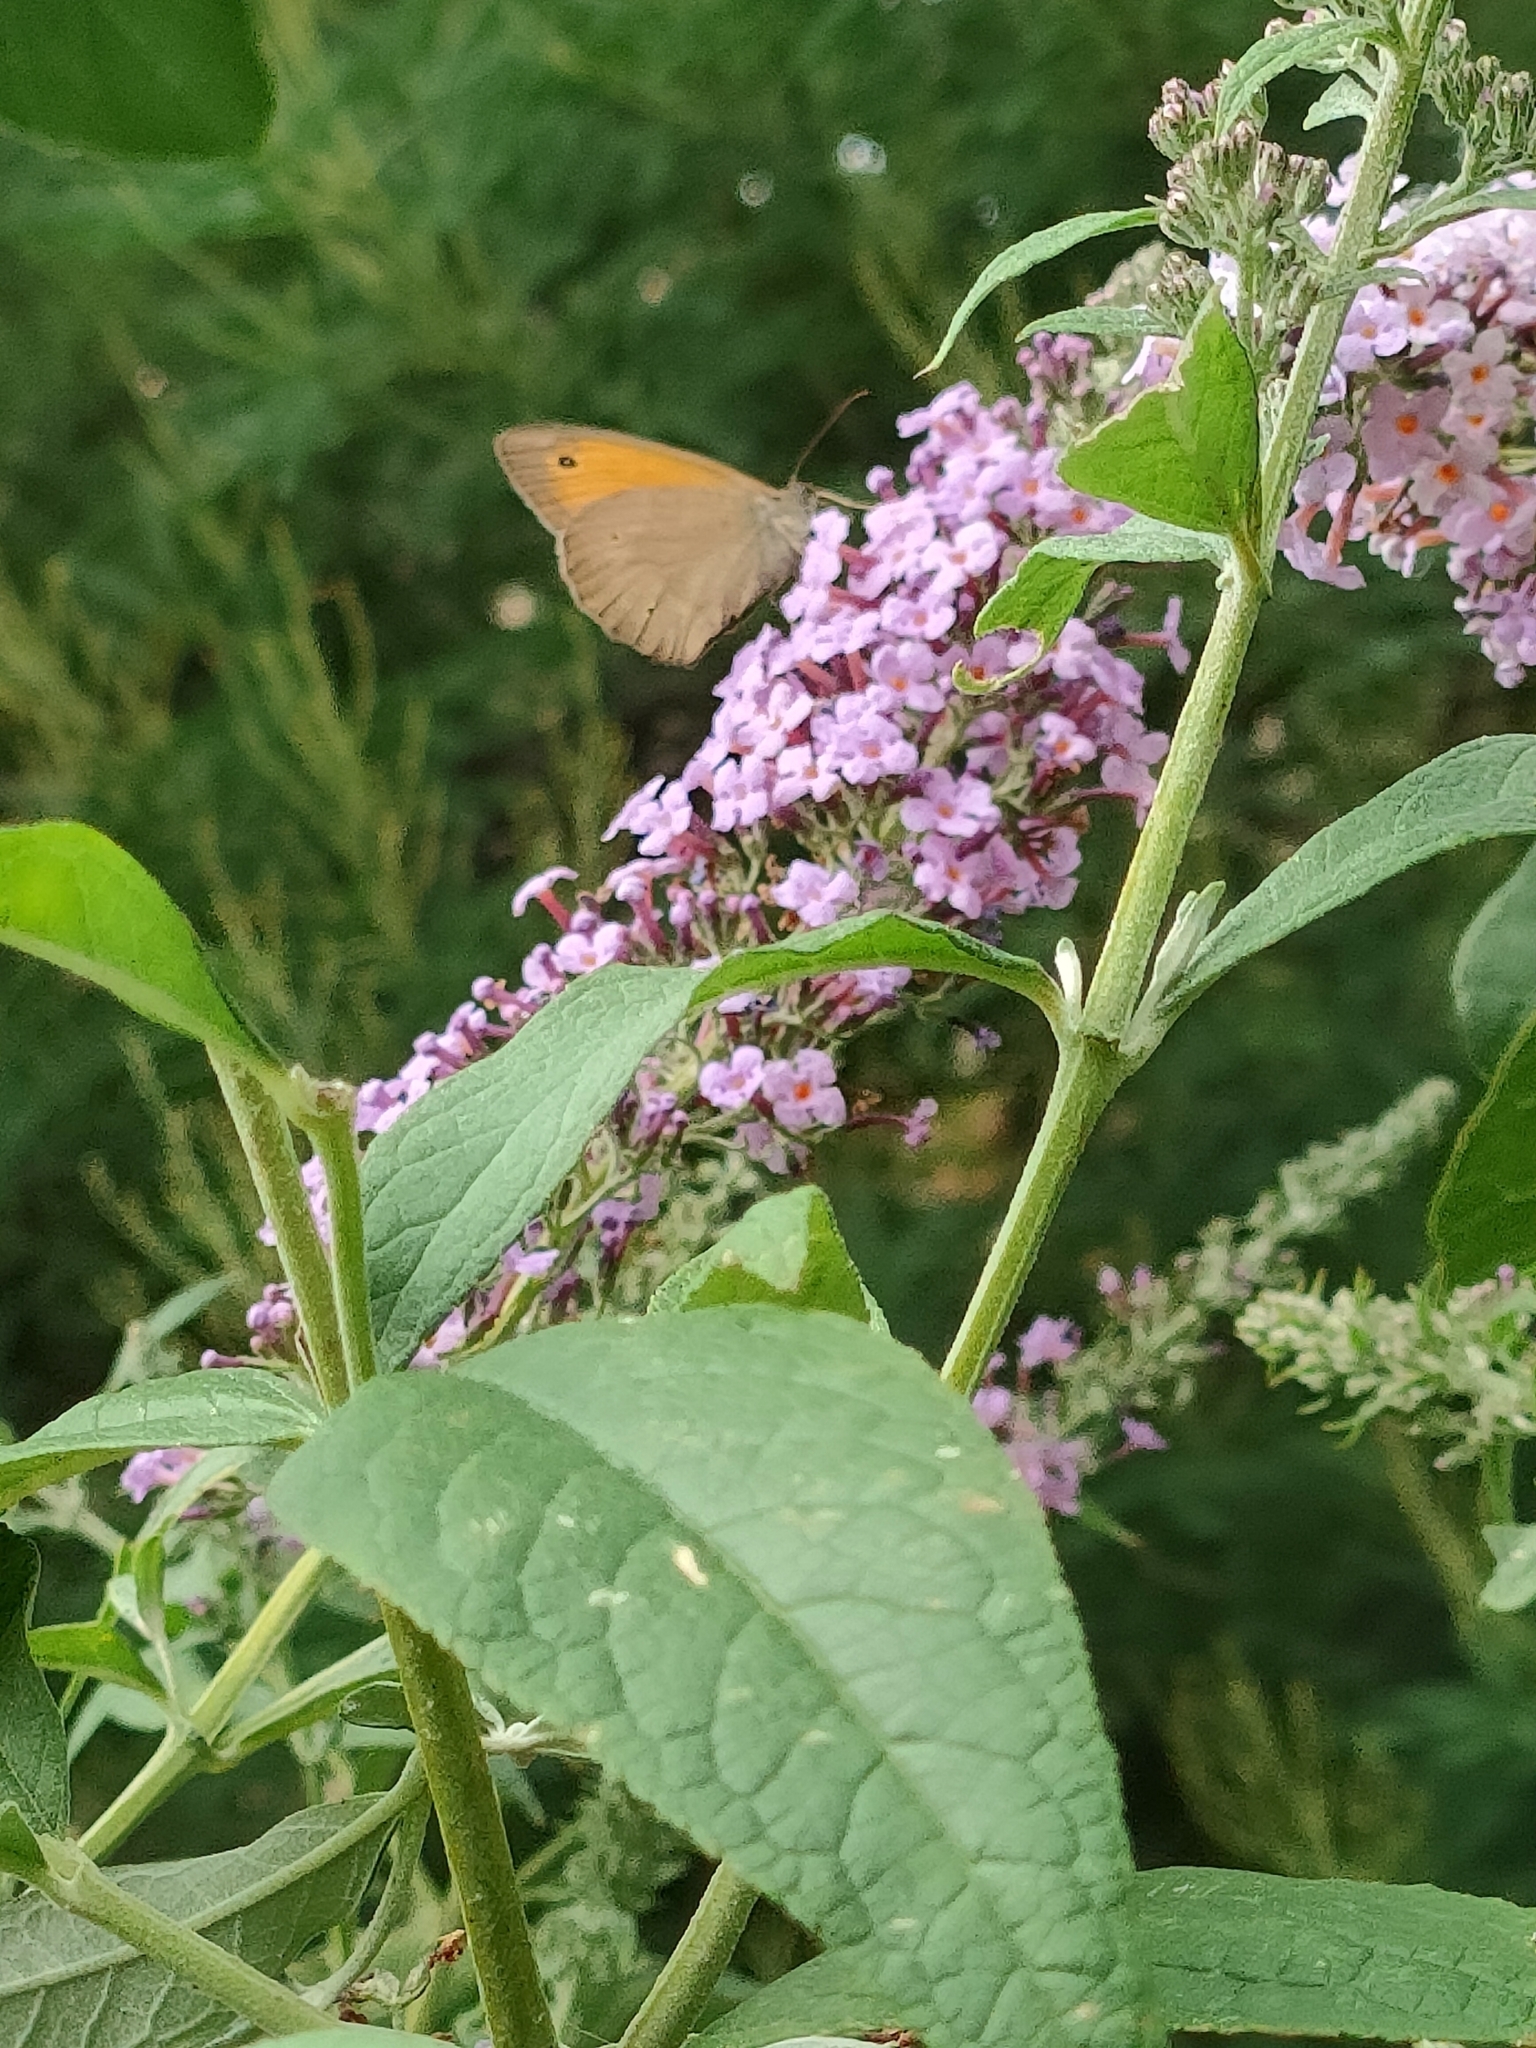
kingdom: Animalia
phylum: Arthropoda
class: Insecta
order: Lepidoptera
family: Nymphalidae
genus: Maniola
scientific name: Maniola jurtina
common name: Meadow brown
